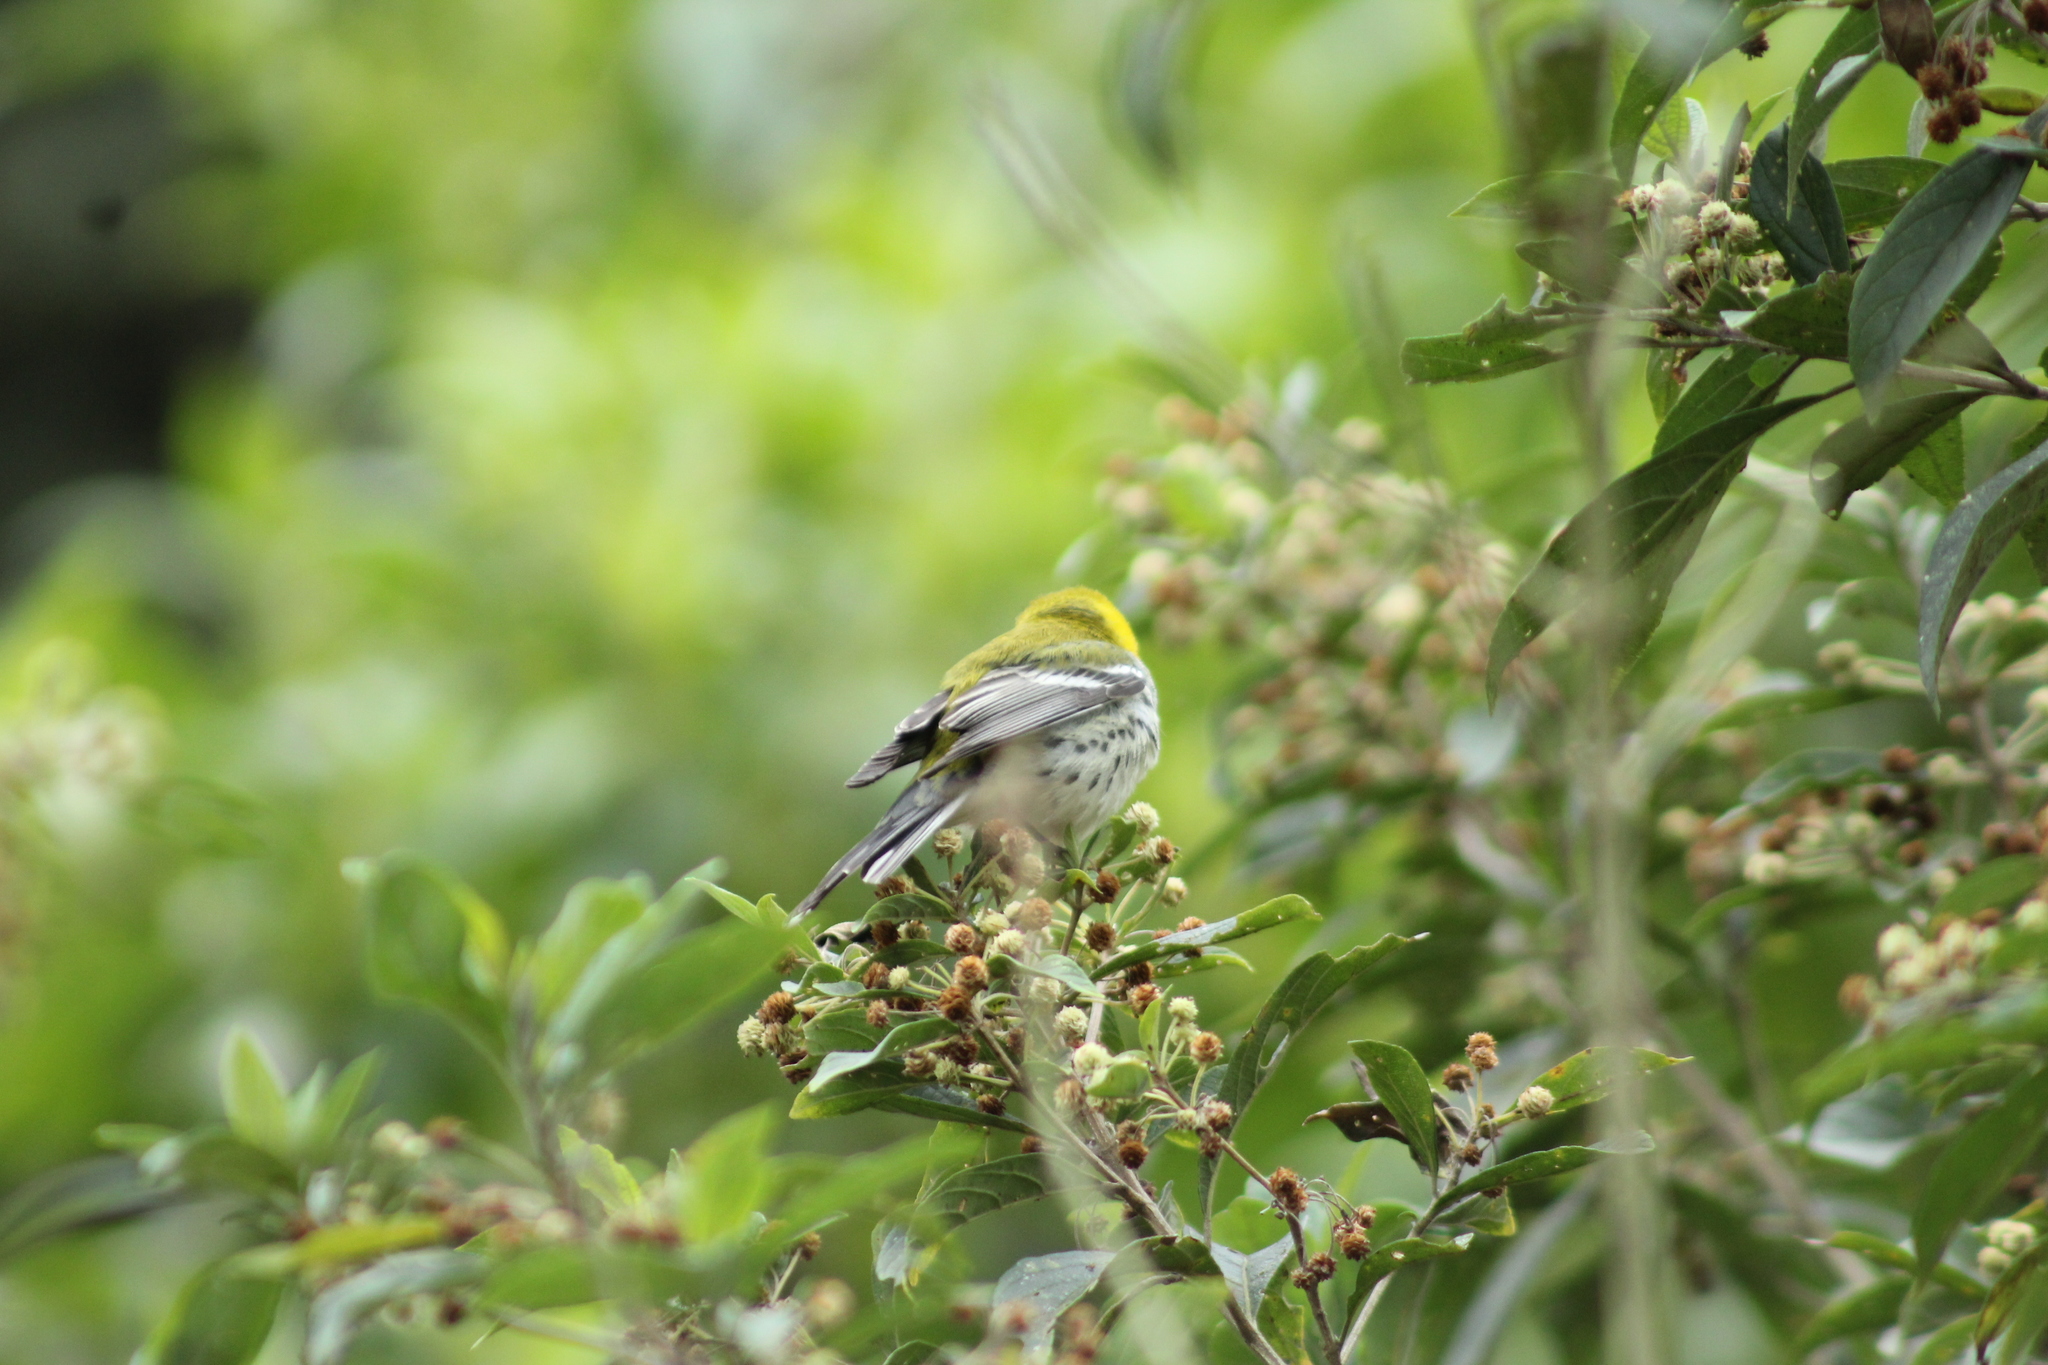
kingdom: Animalia
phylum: Chordata
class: Aves
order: Passeriformes
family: Parulidae
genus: Setophaga
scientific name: Setophaga virens
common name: Black-throated green warbler
